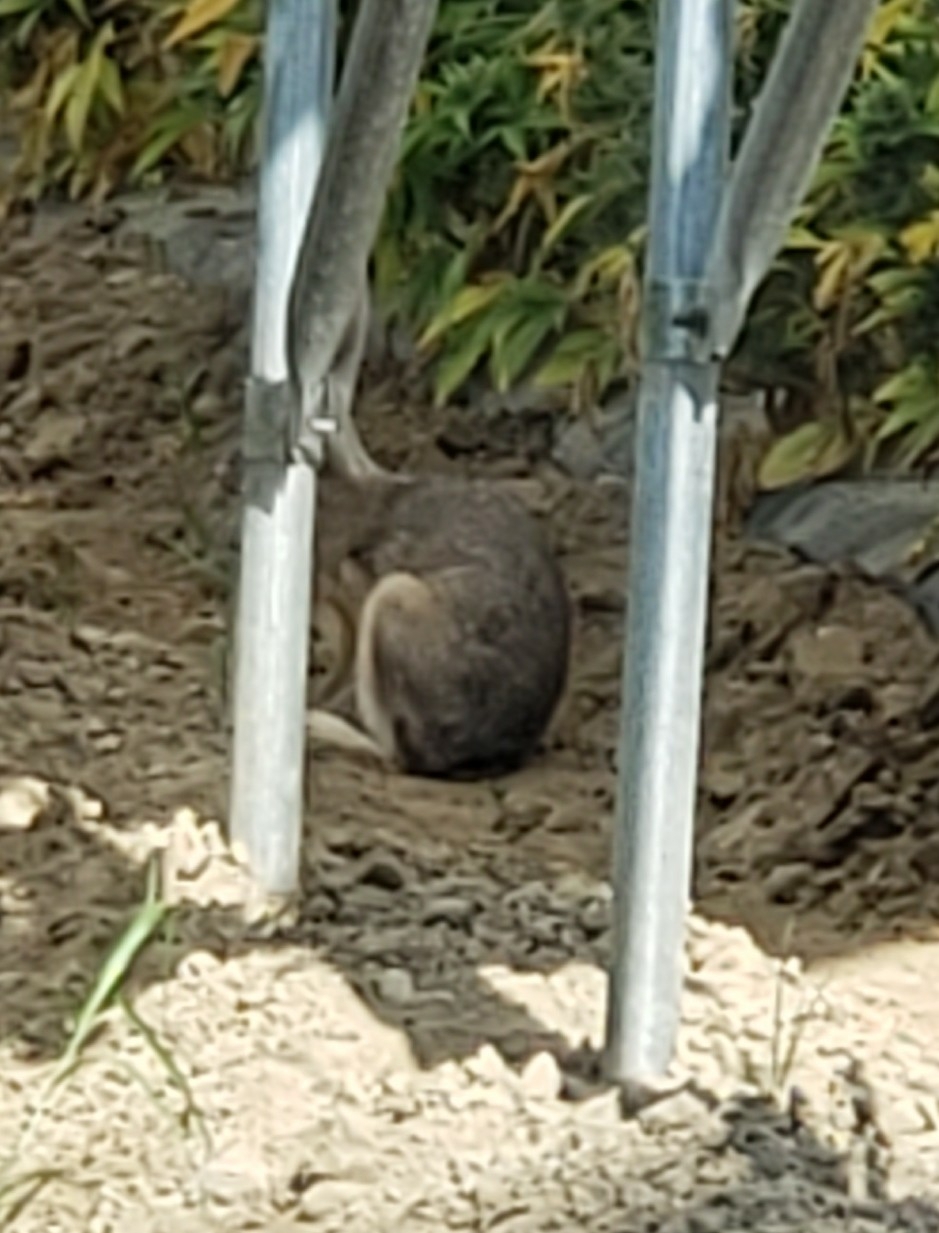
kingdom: Animalia
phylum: Chordata
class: Mammalia
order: Lagomorpha
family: Leporidae
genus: Lepus
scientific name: Lepus californicus
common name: Black-tailed jackrabbit
